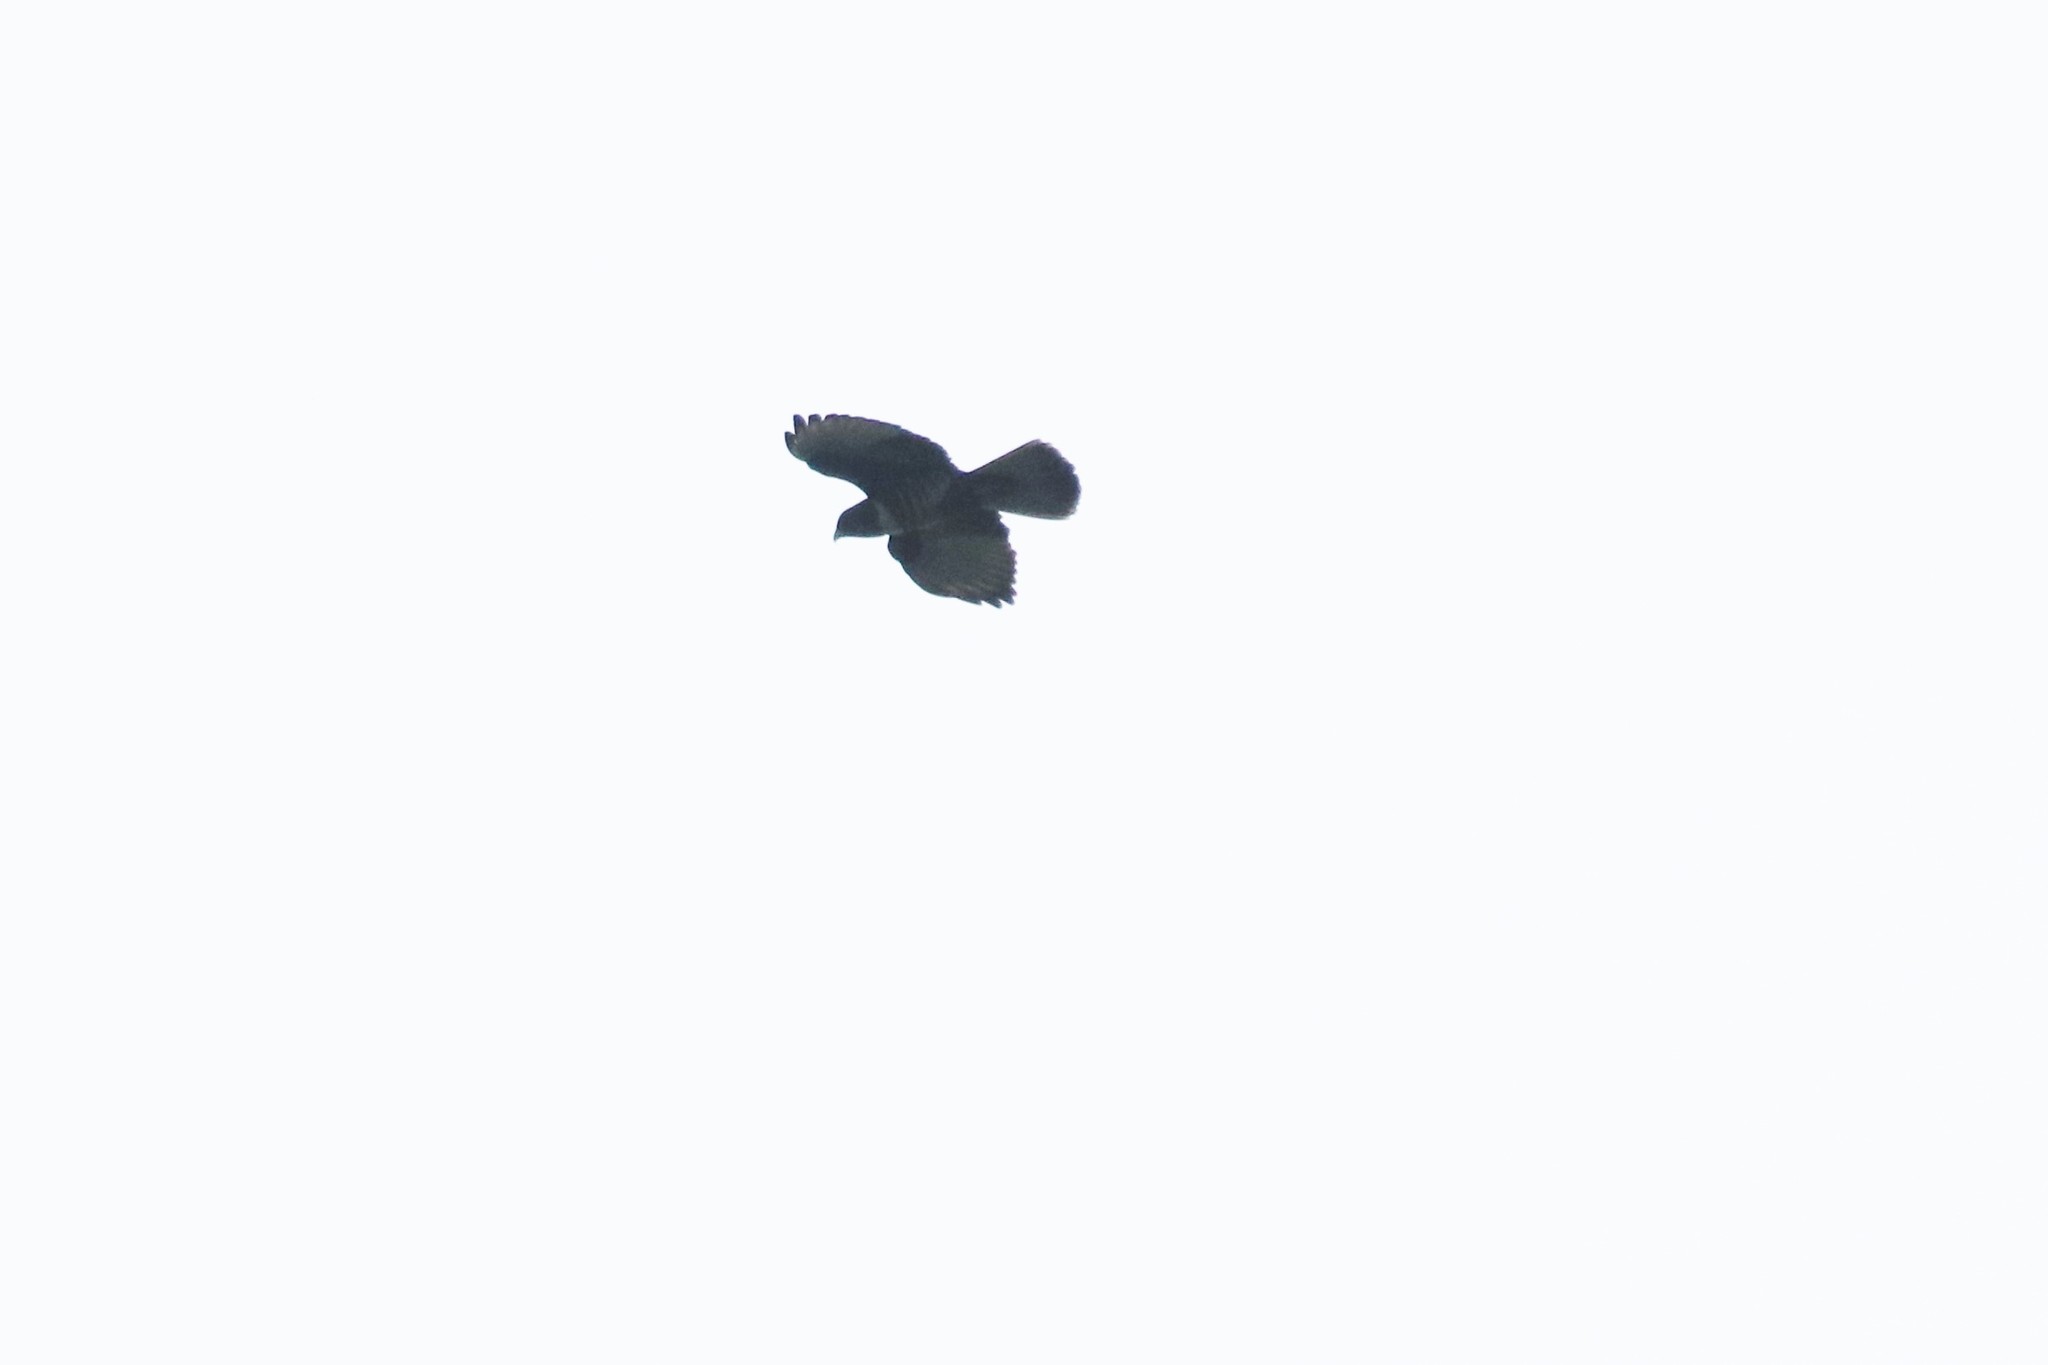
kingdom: Animalia
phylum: Chordata
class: Aves
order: Accipitriformes
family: Accipitridae
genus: Aviceda
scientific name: Aviceda leuphotes
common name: Black baza
